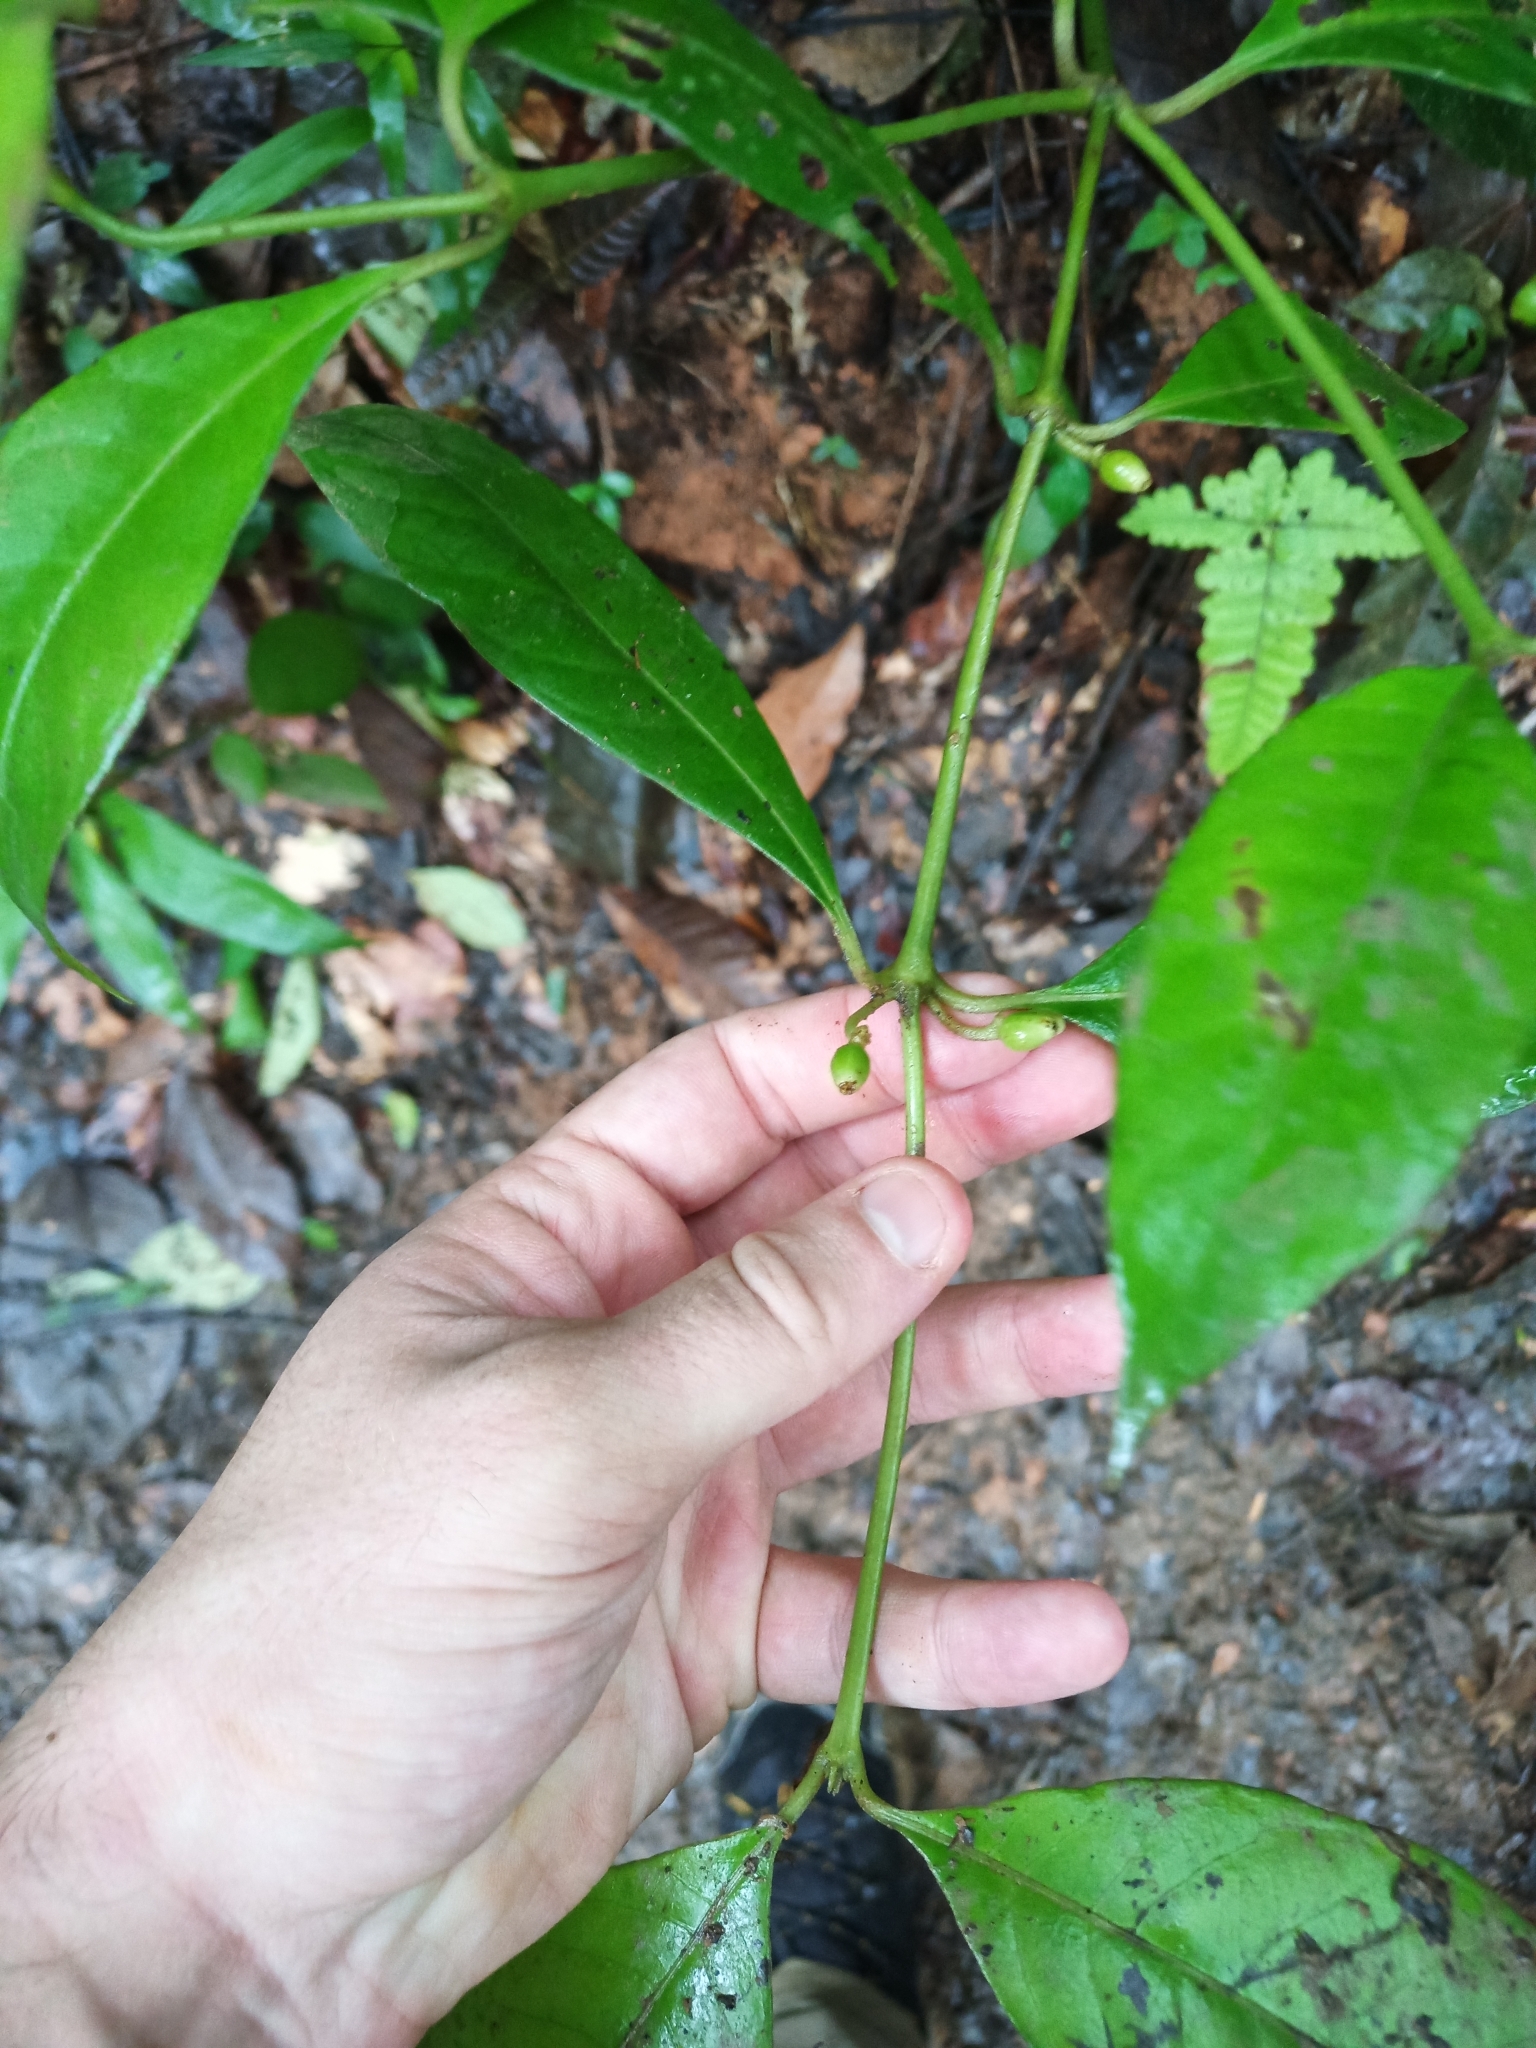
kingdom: Plantae
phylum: Tracheophyta
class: Magnoliopsida
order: Gentianales
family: Rubiaceae
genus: Ronabea
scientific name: Ronabea latifolia
